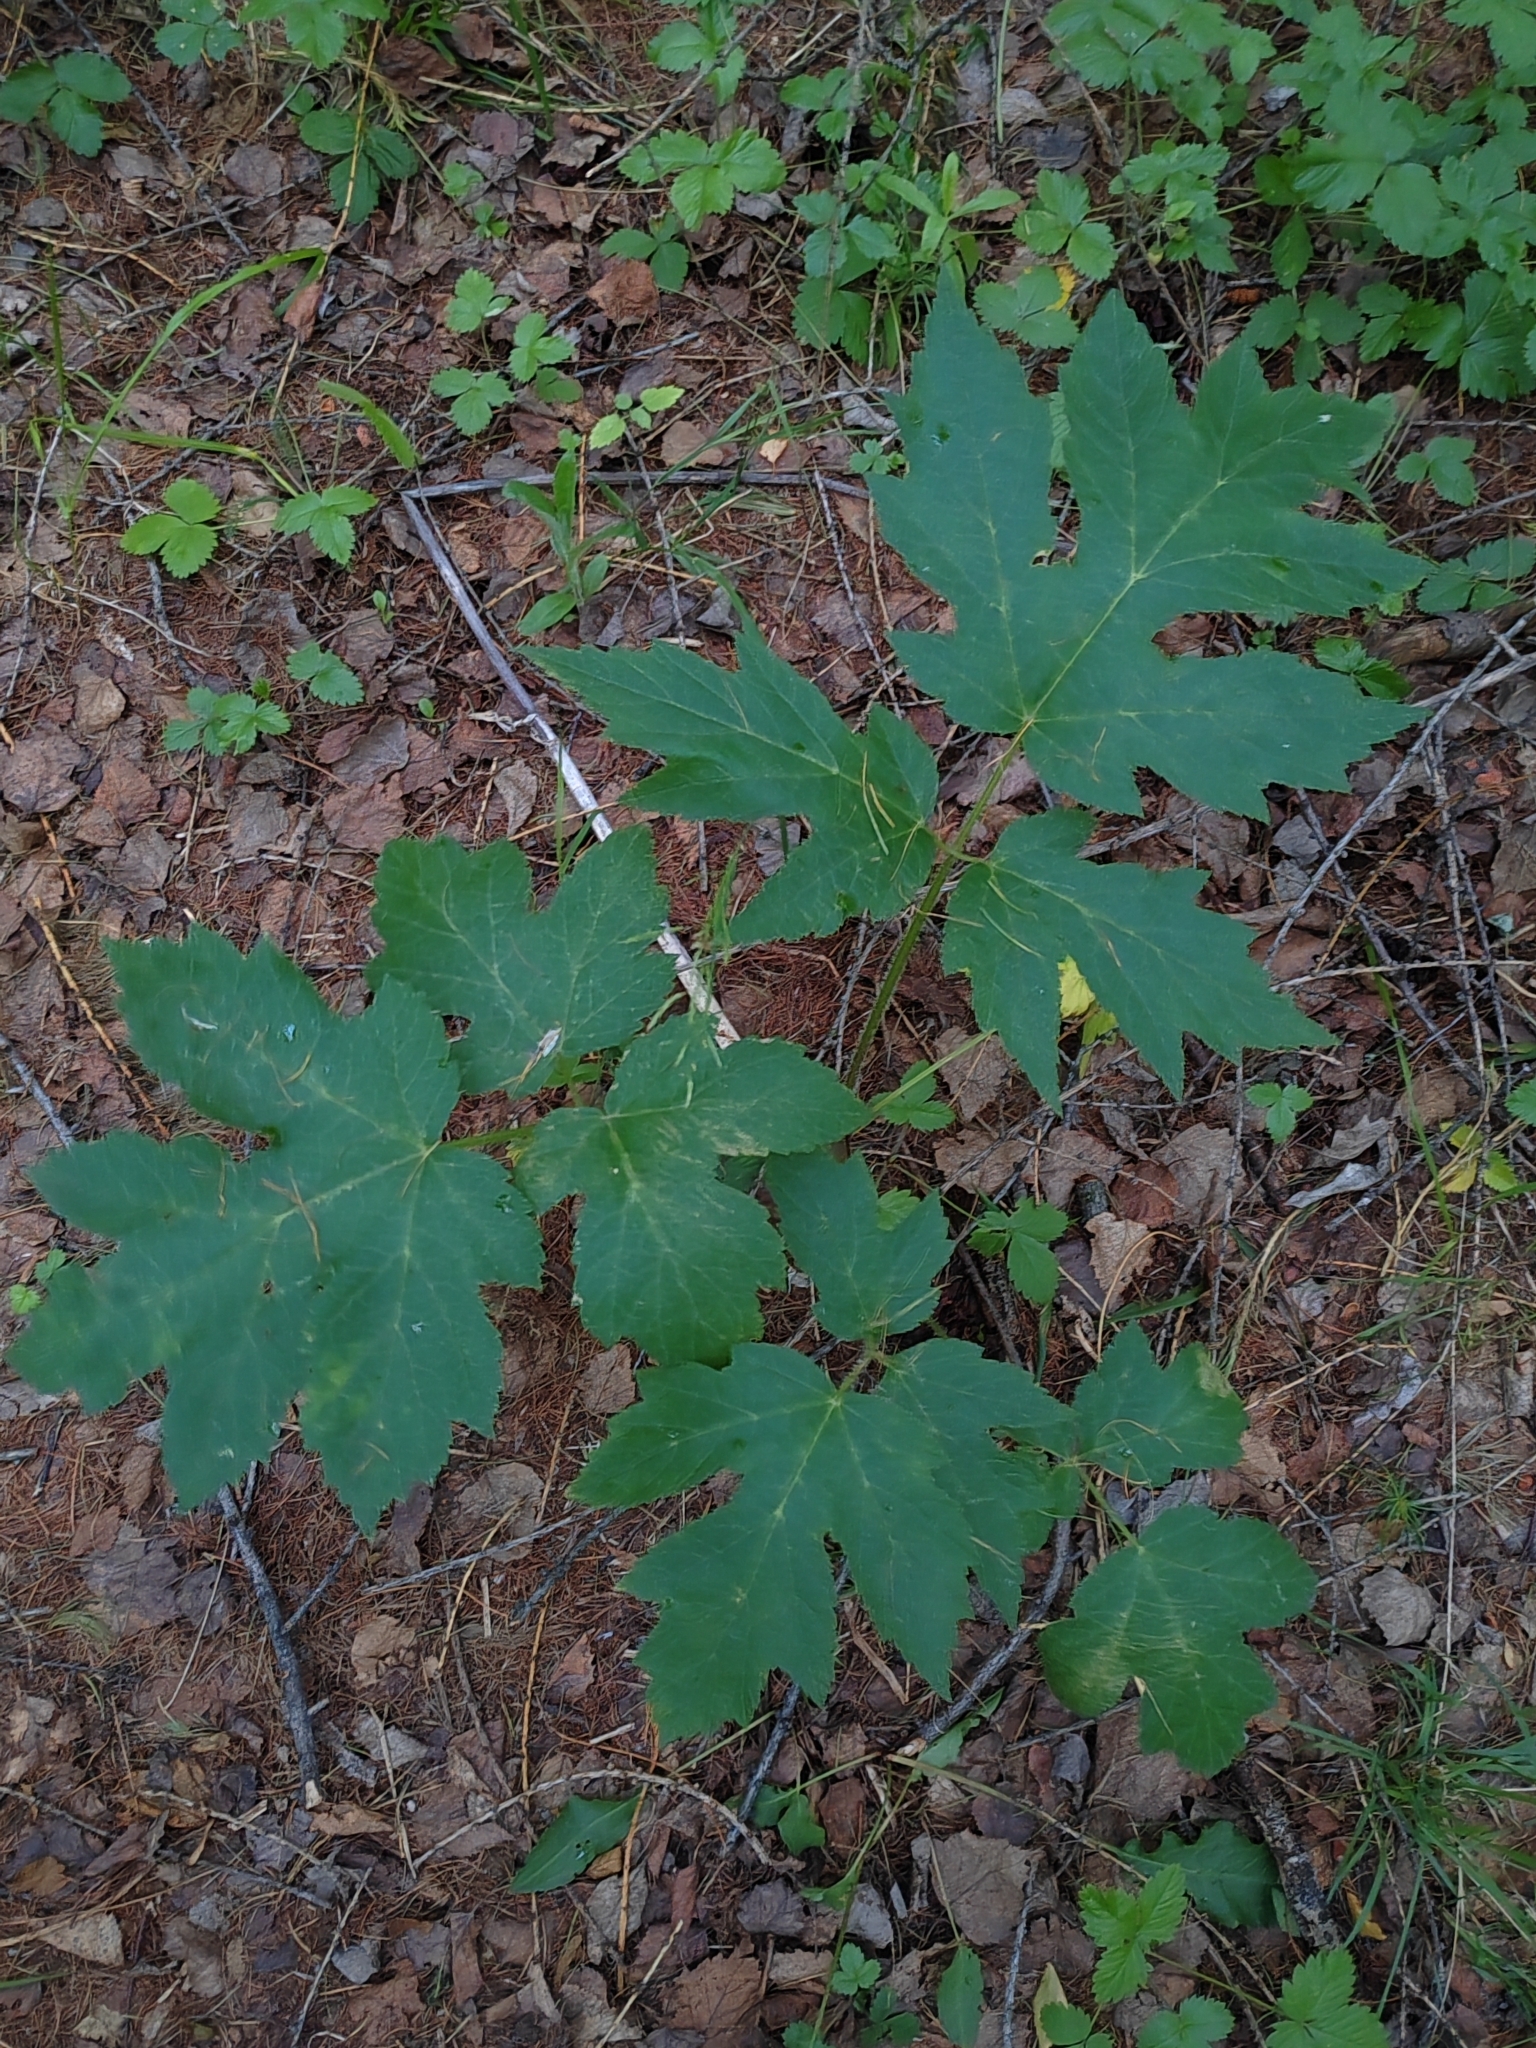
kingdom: Plantae
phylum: Tracheophyta
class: Magnoliopsida
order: Apiales
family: Apiaceae
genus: Heracleum
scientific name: Heracleum sphondylium
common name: Hogweed
